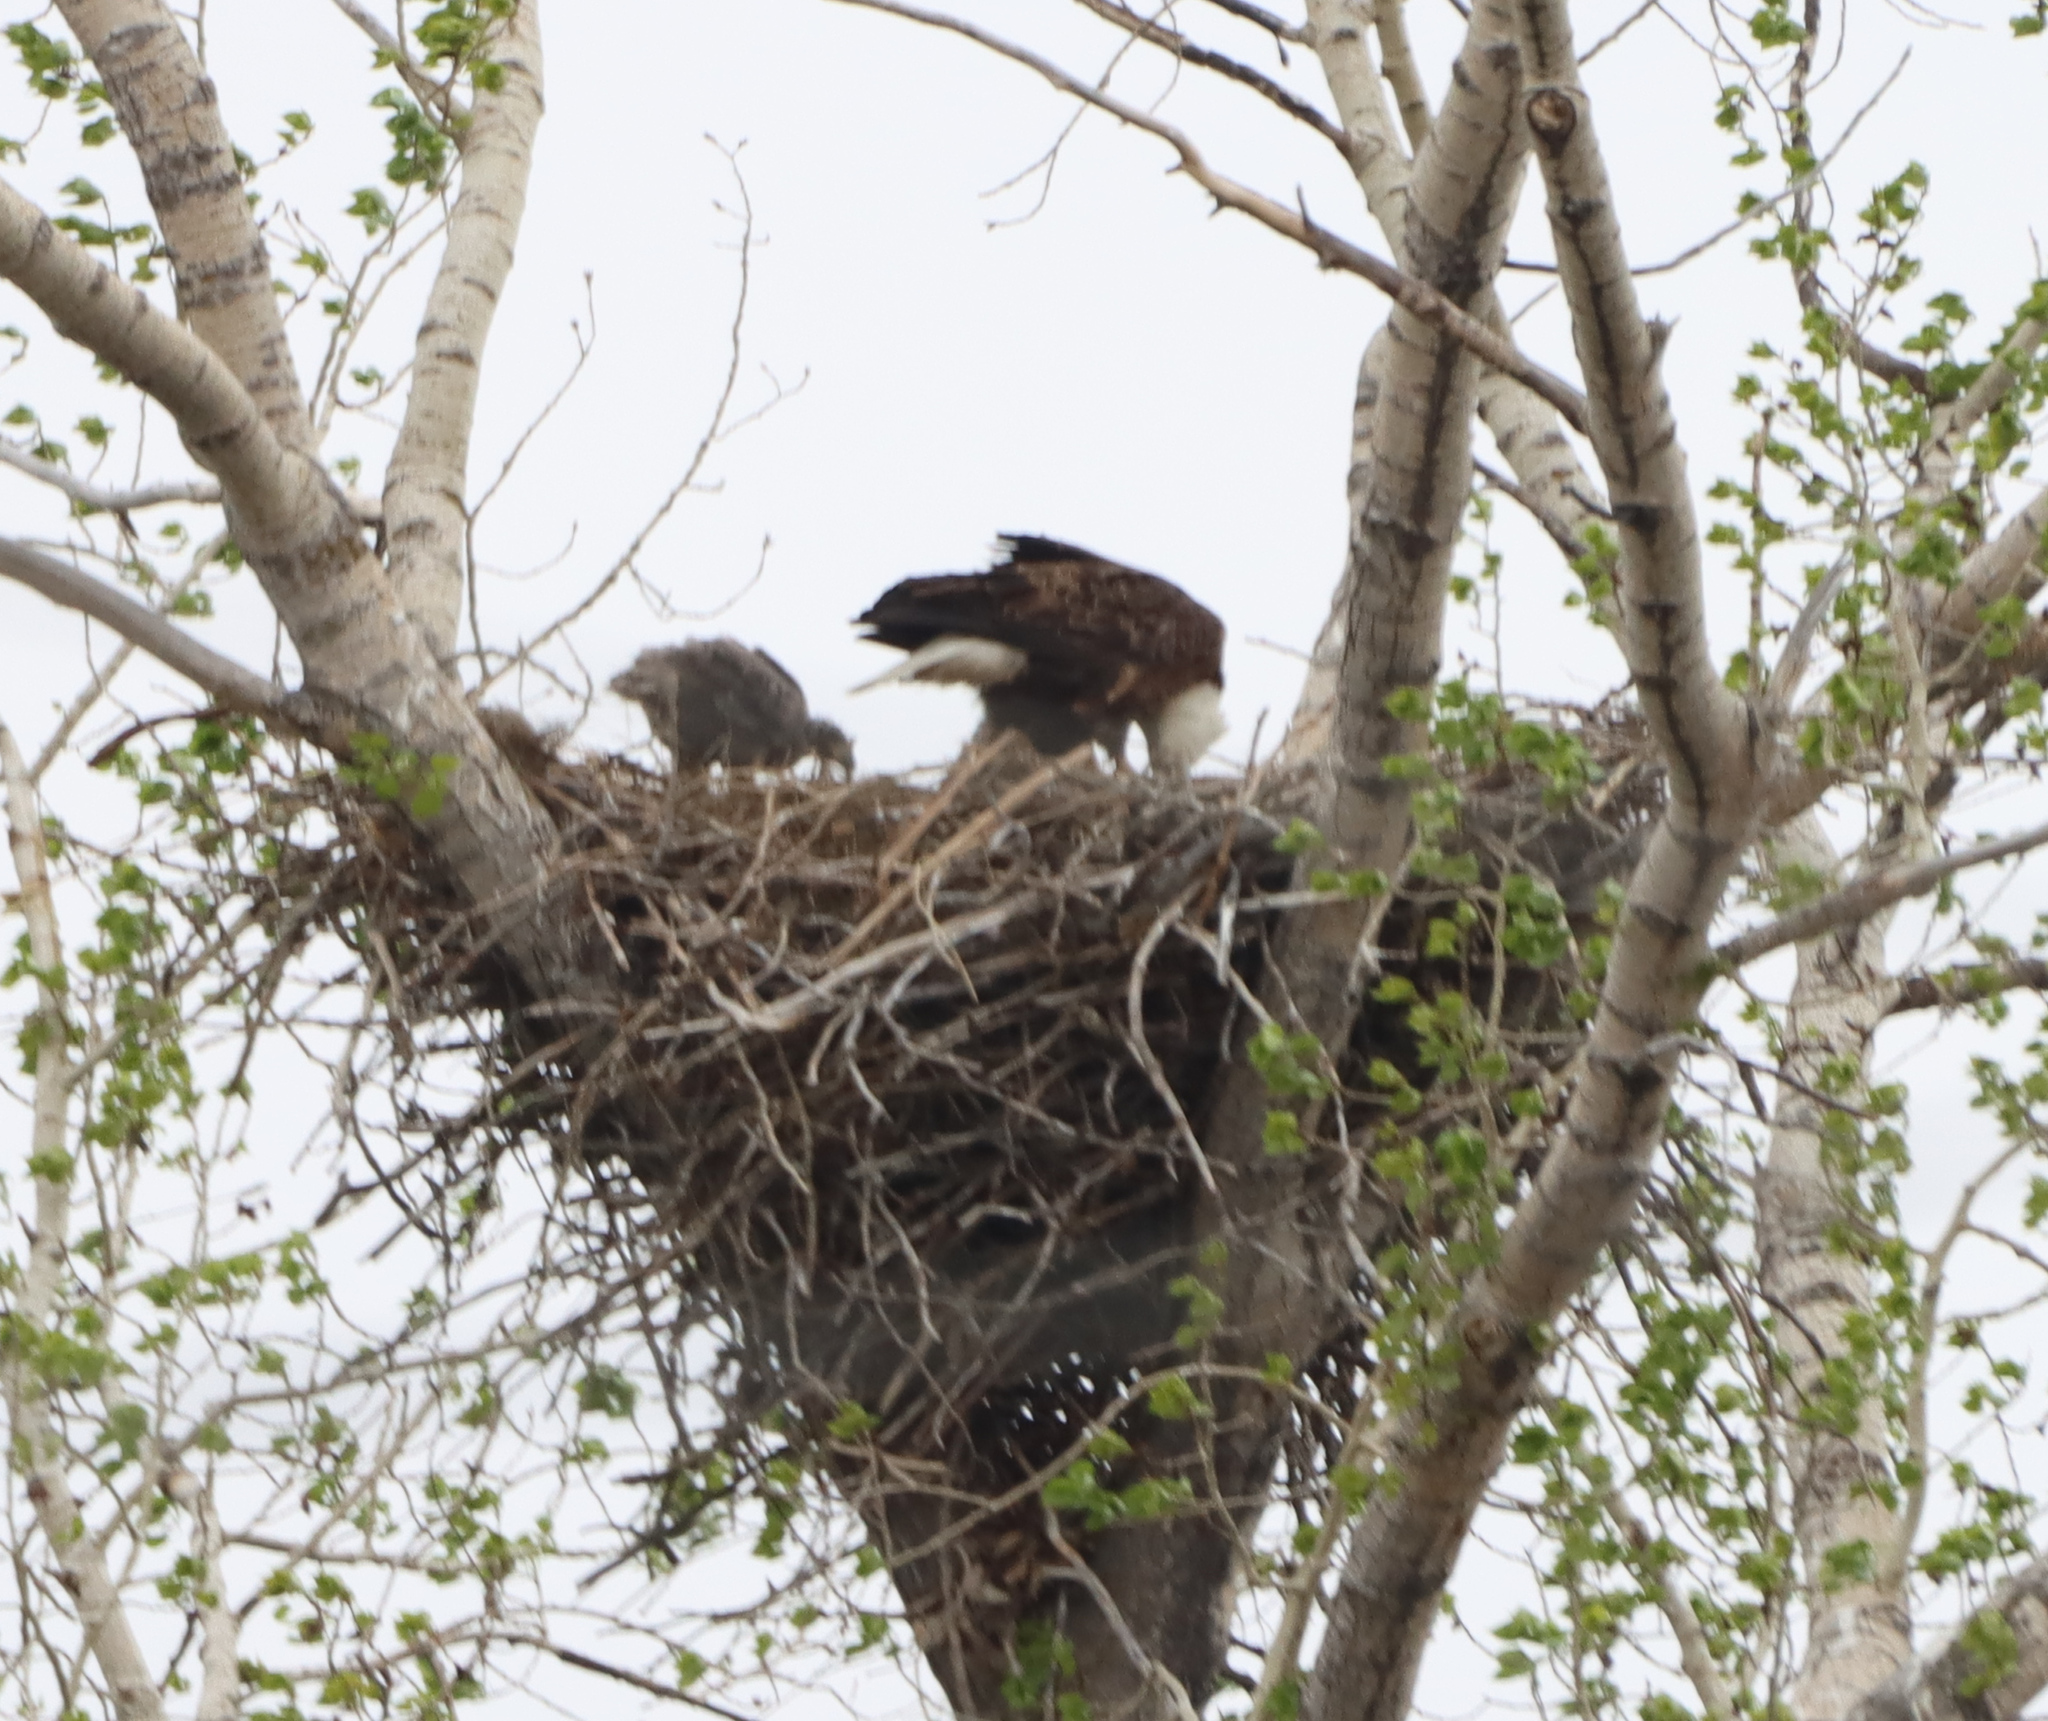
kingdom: Animalia
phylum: Chordata
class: Aves
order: Accipitriformes
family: Accipitridae
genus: Haliaeetus
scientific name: Haliaeetus leucocephalus
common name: Bald eagle
